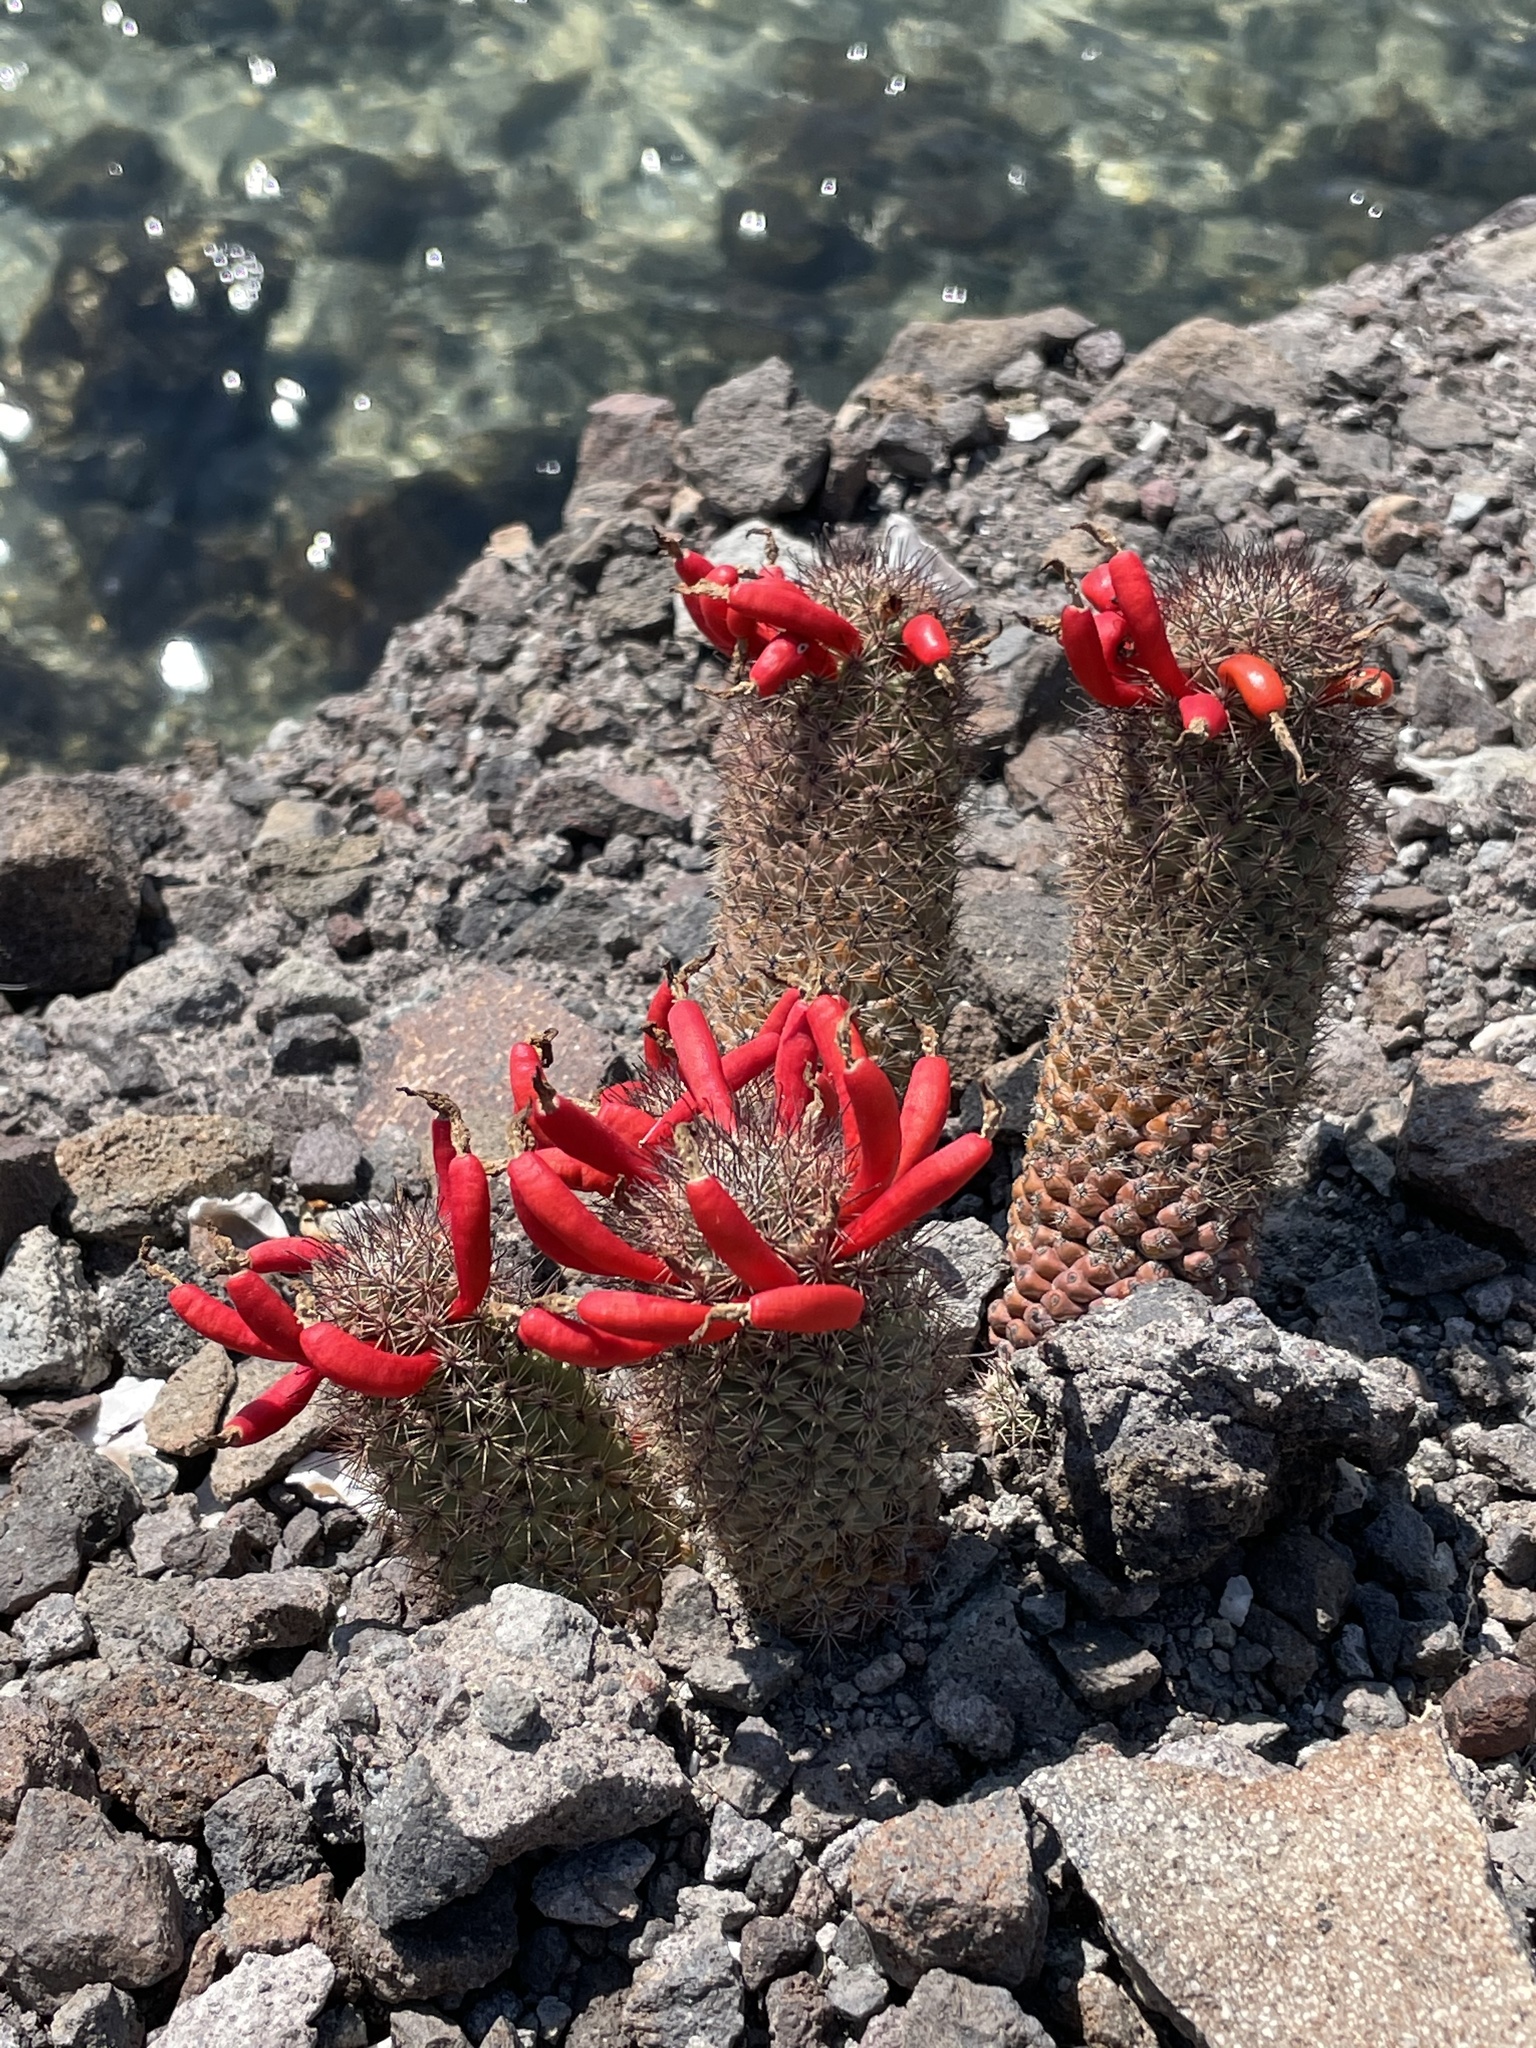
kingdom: Plantae
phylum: Tracheophyta
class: Magnoliopsida
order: Caryophyllales
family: Cactaceae
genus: Cochemiea
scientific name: Cochemiea fraileana
